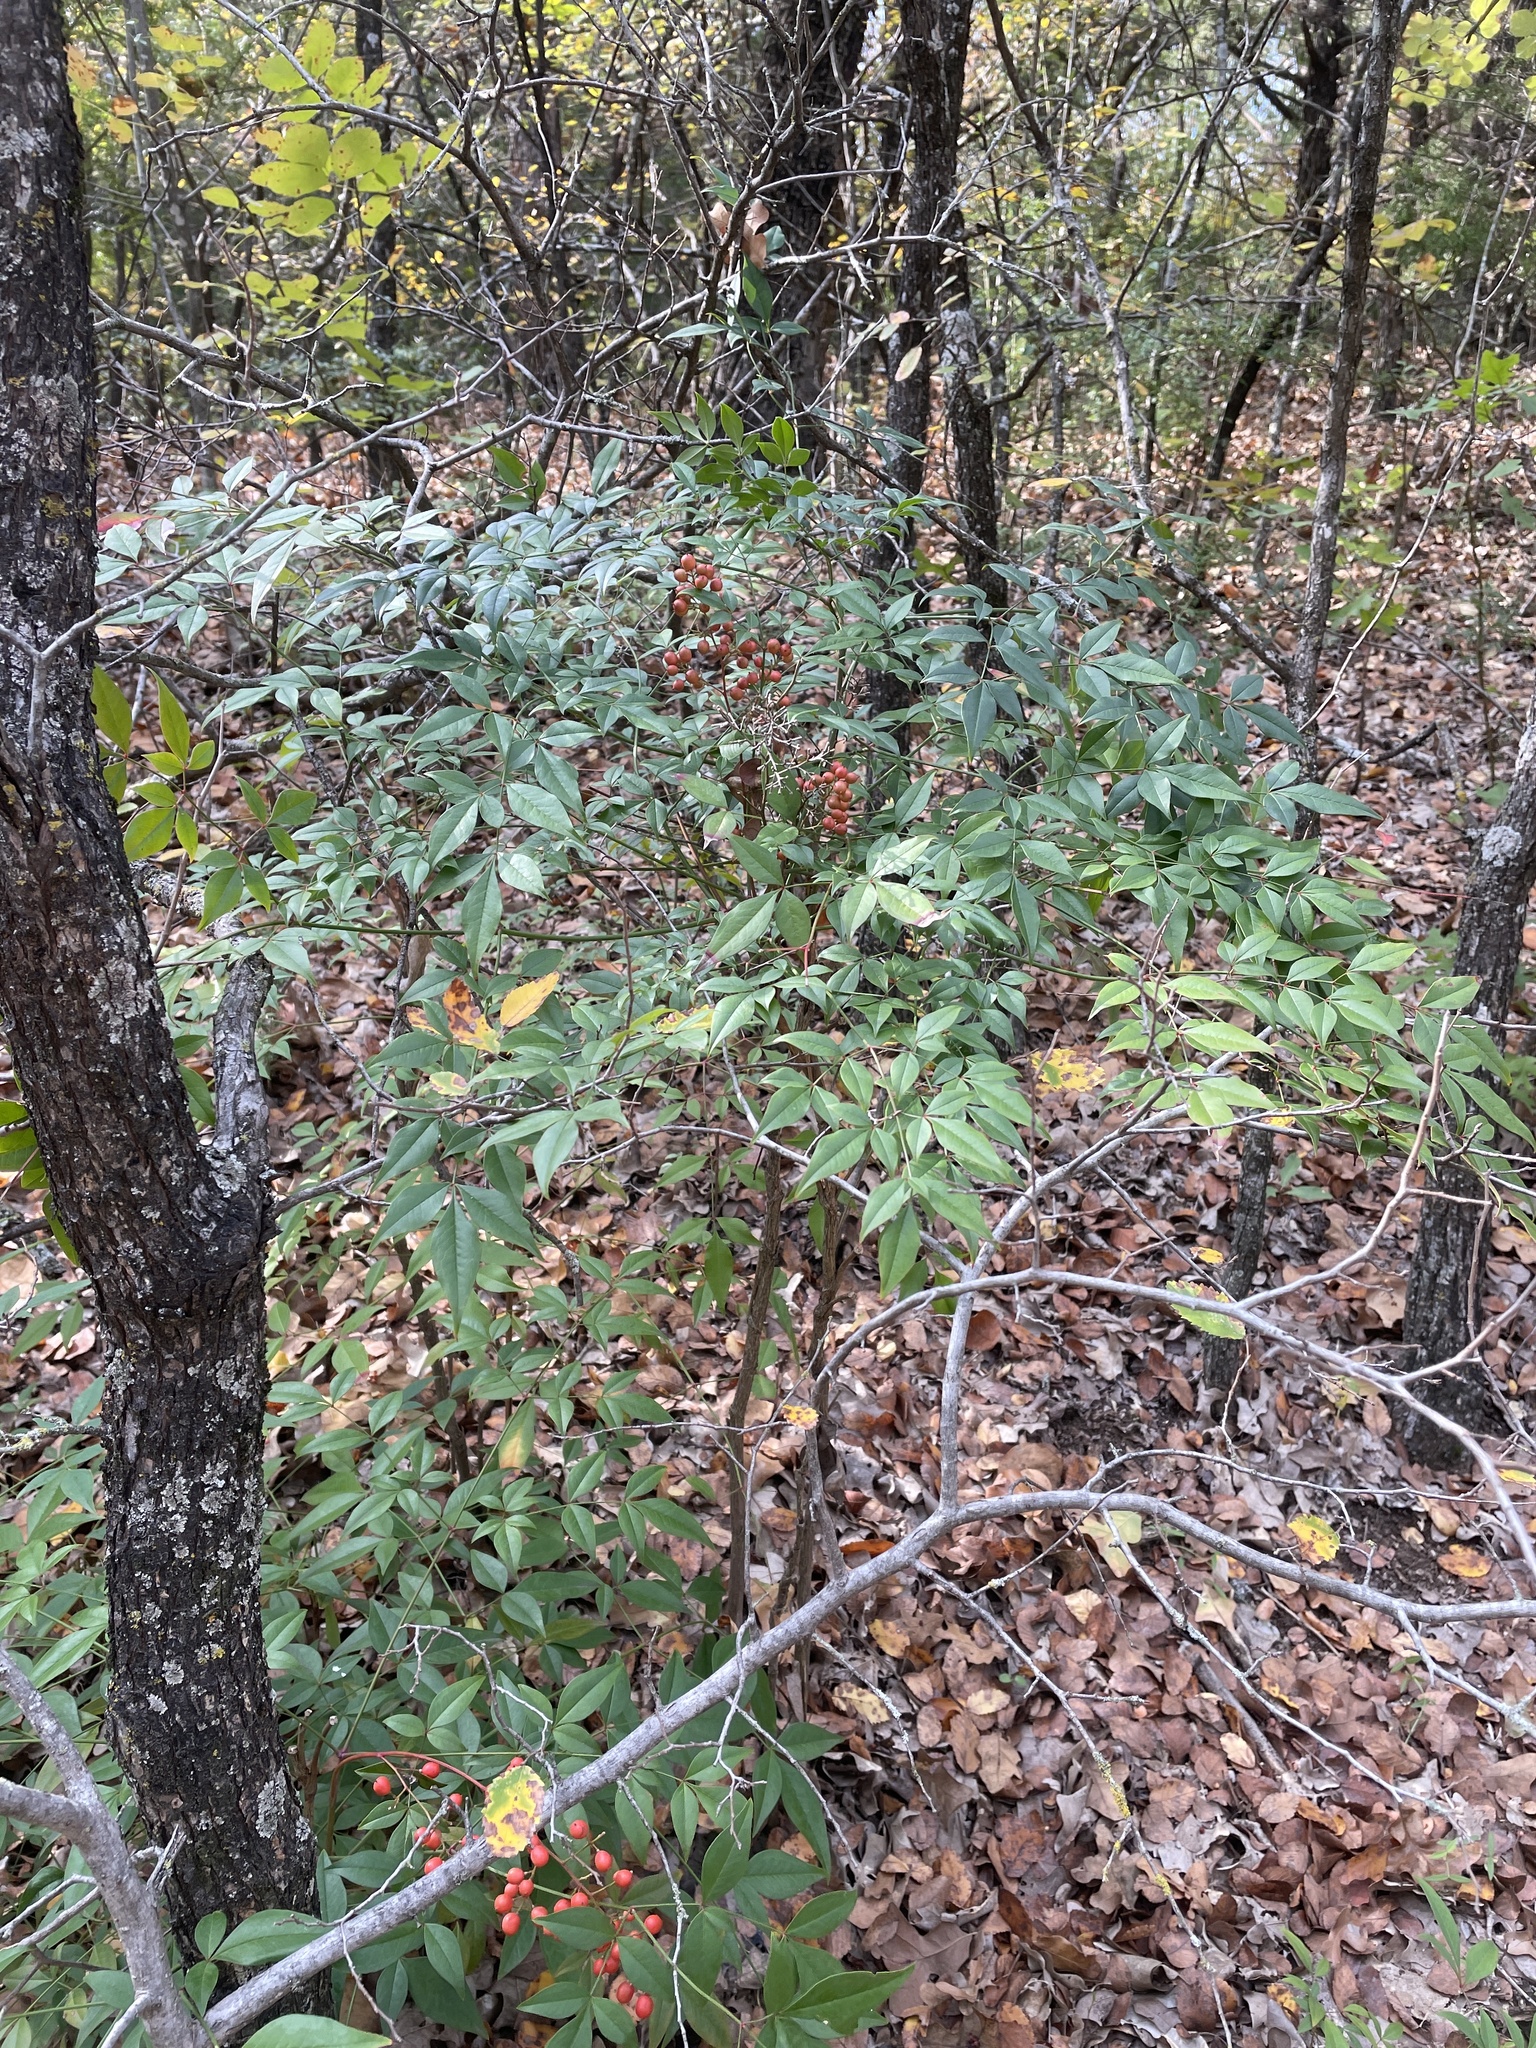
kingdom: Plantae
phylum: Tracheophyta
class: Magnoliopsida
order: Ranunculales
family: Berberidaceae
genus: Nandina
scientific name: Nandina domestica
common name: Sacred bamboo
